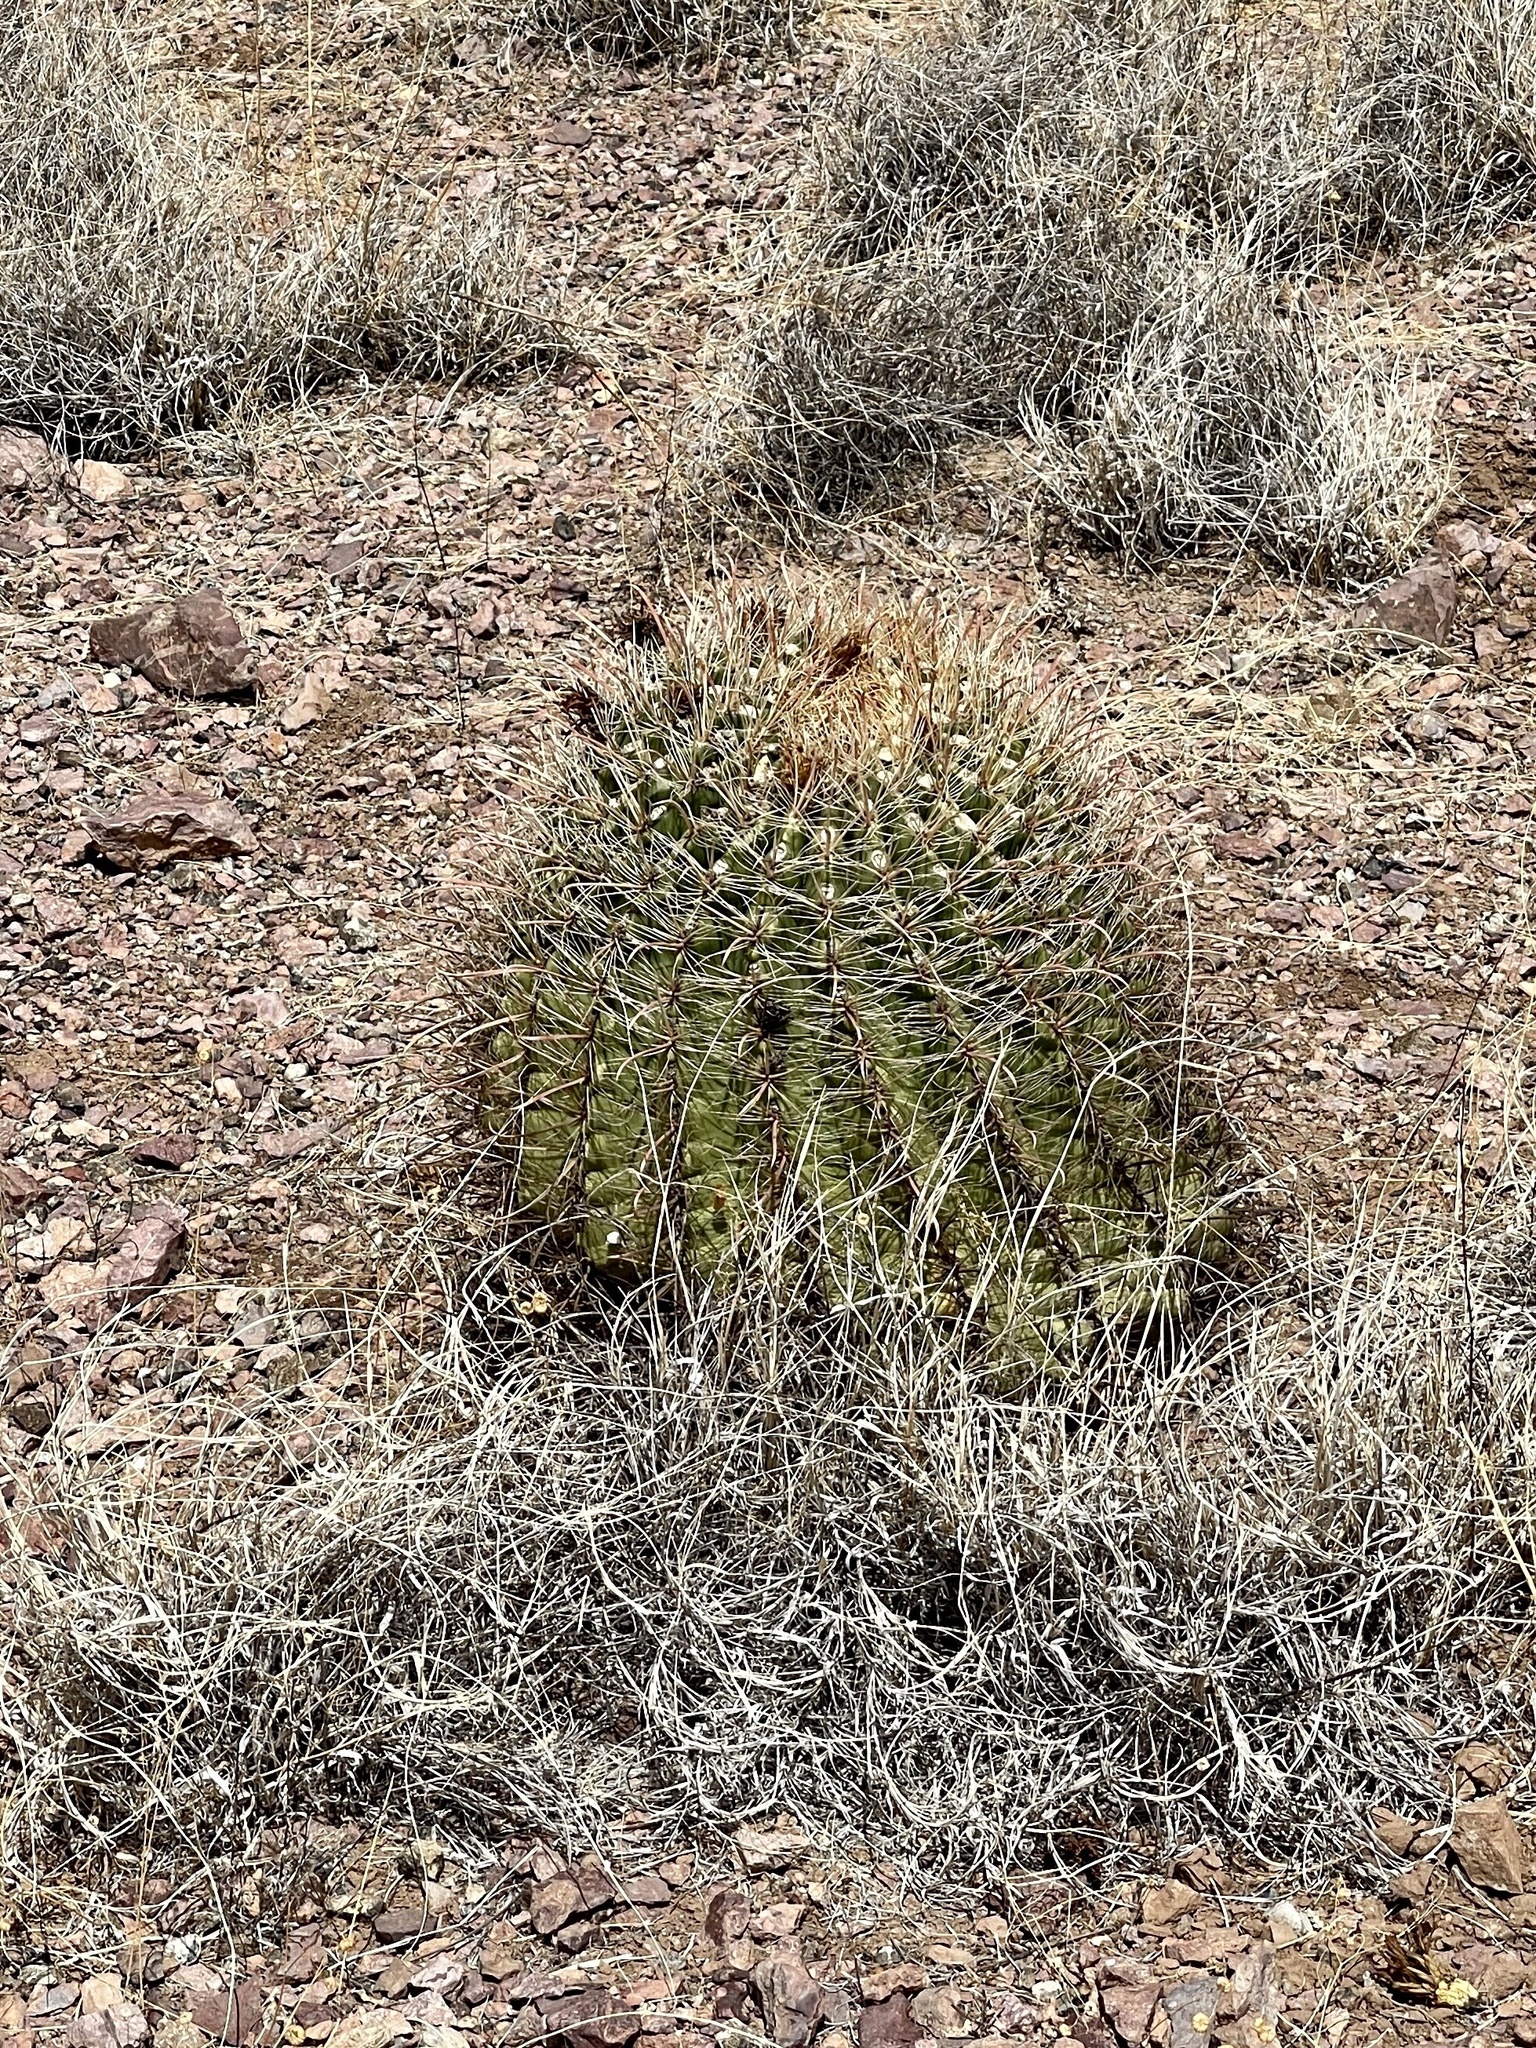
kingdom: Plantae
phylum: Tracheophyta
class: Magnoliopsida
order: Caryophyllales
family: Cactaceae
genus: Ferocactus
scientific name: Ferocactus wislizeni
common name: Candy barrel cactus
